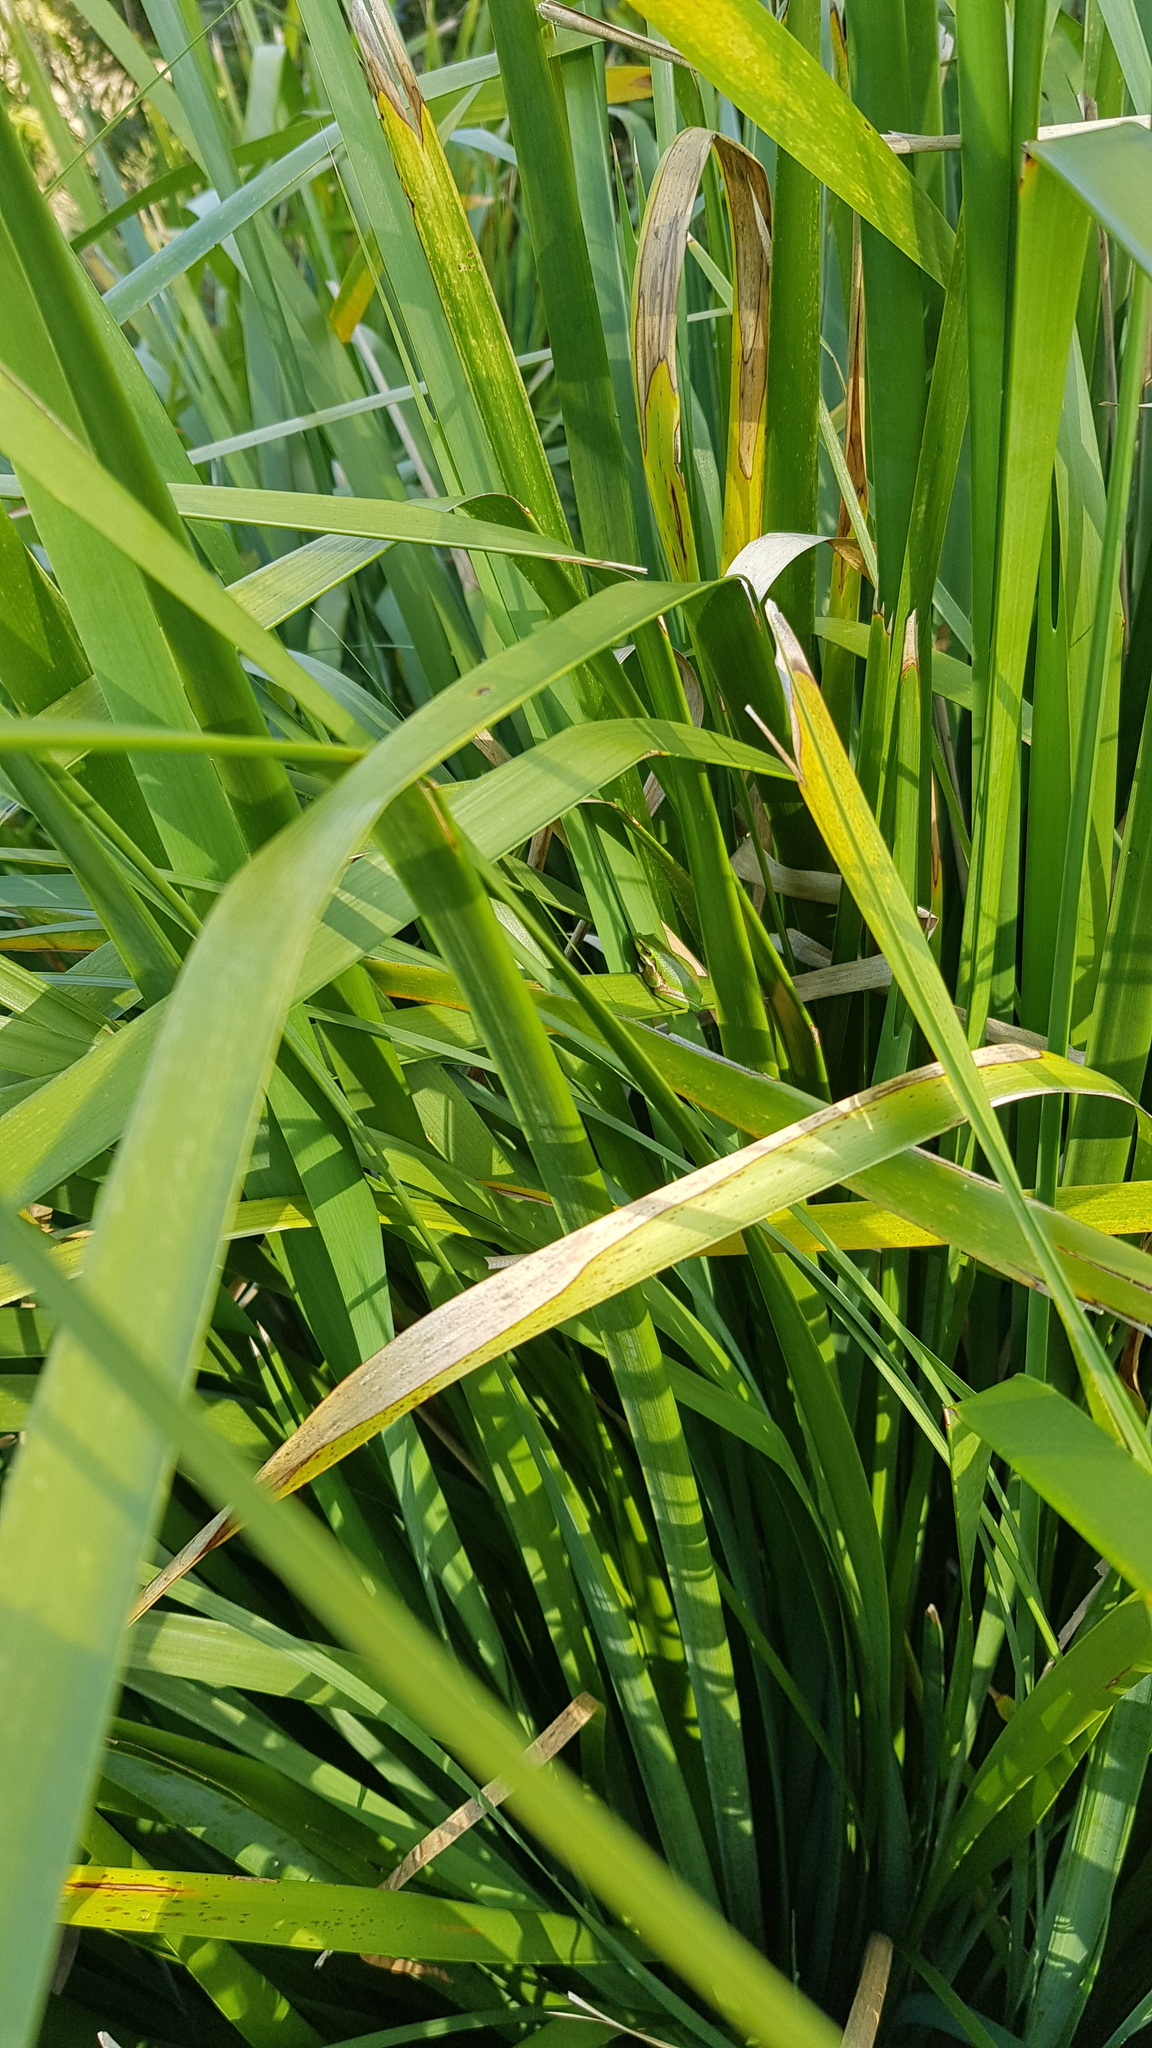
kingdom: Animalia
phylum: Chordata
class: Amphibia
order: Anura
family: Pelodryadidae
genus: Litoria
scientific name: Litoria fallax
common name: Eastern dwarf treefrog
